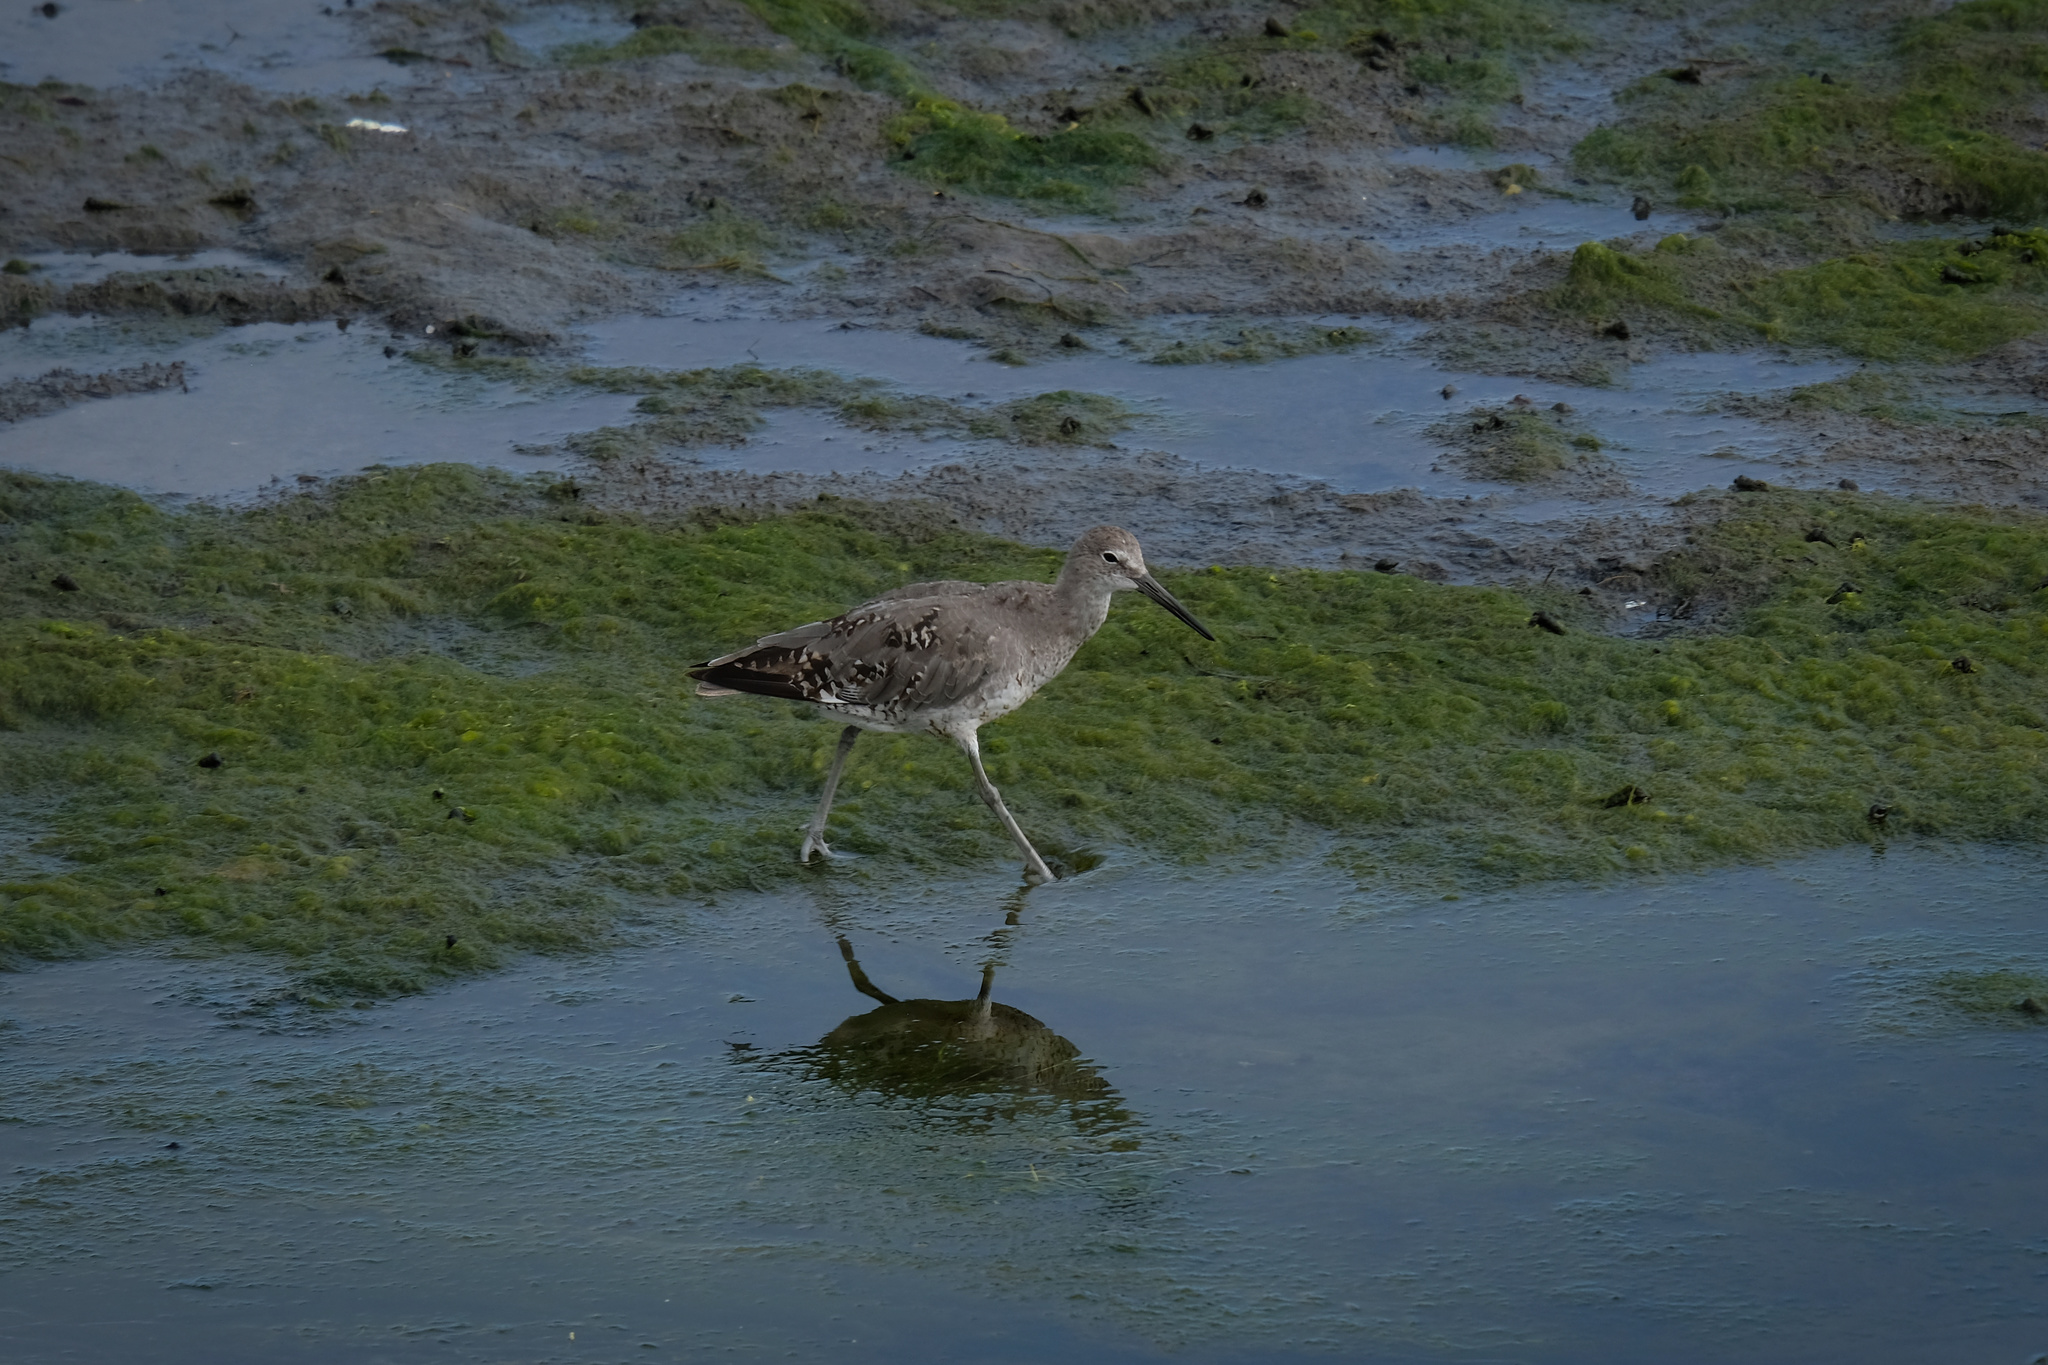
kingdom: Animalia
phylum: Chordata
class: Aves
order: Charadriiformes
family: Scolopacidae
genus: Tringa
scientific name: Tringa semipalmata
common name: Willet
